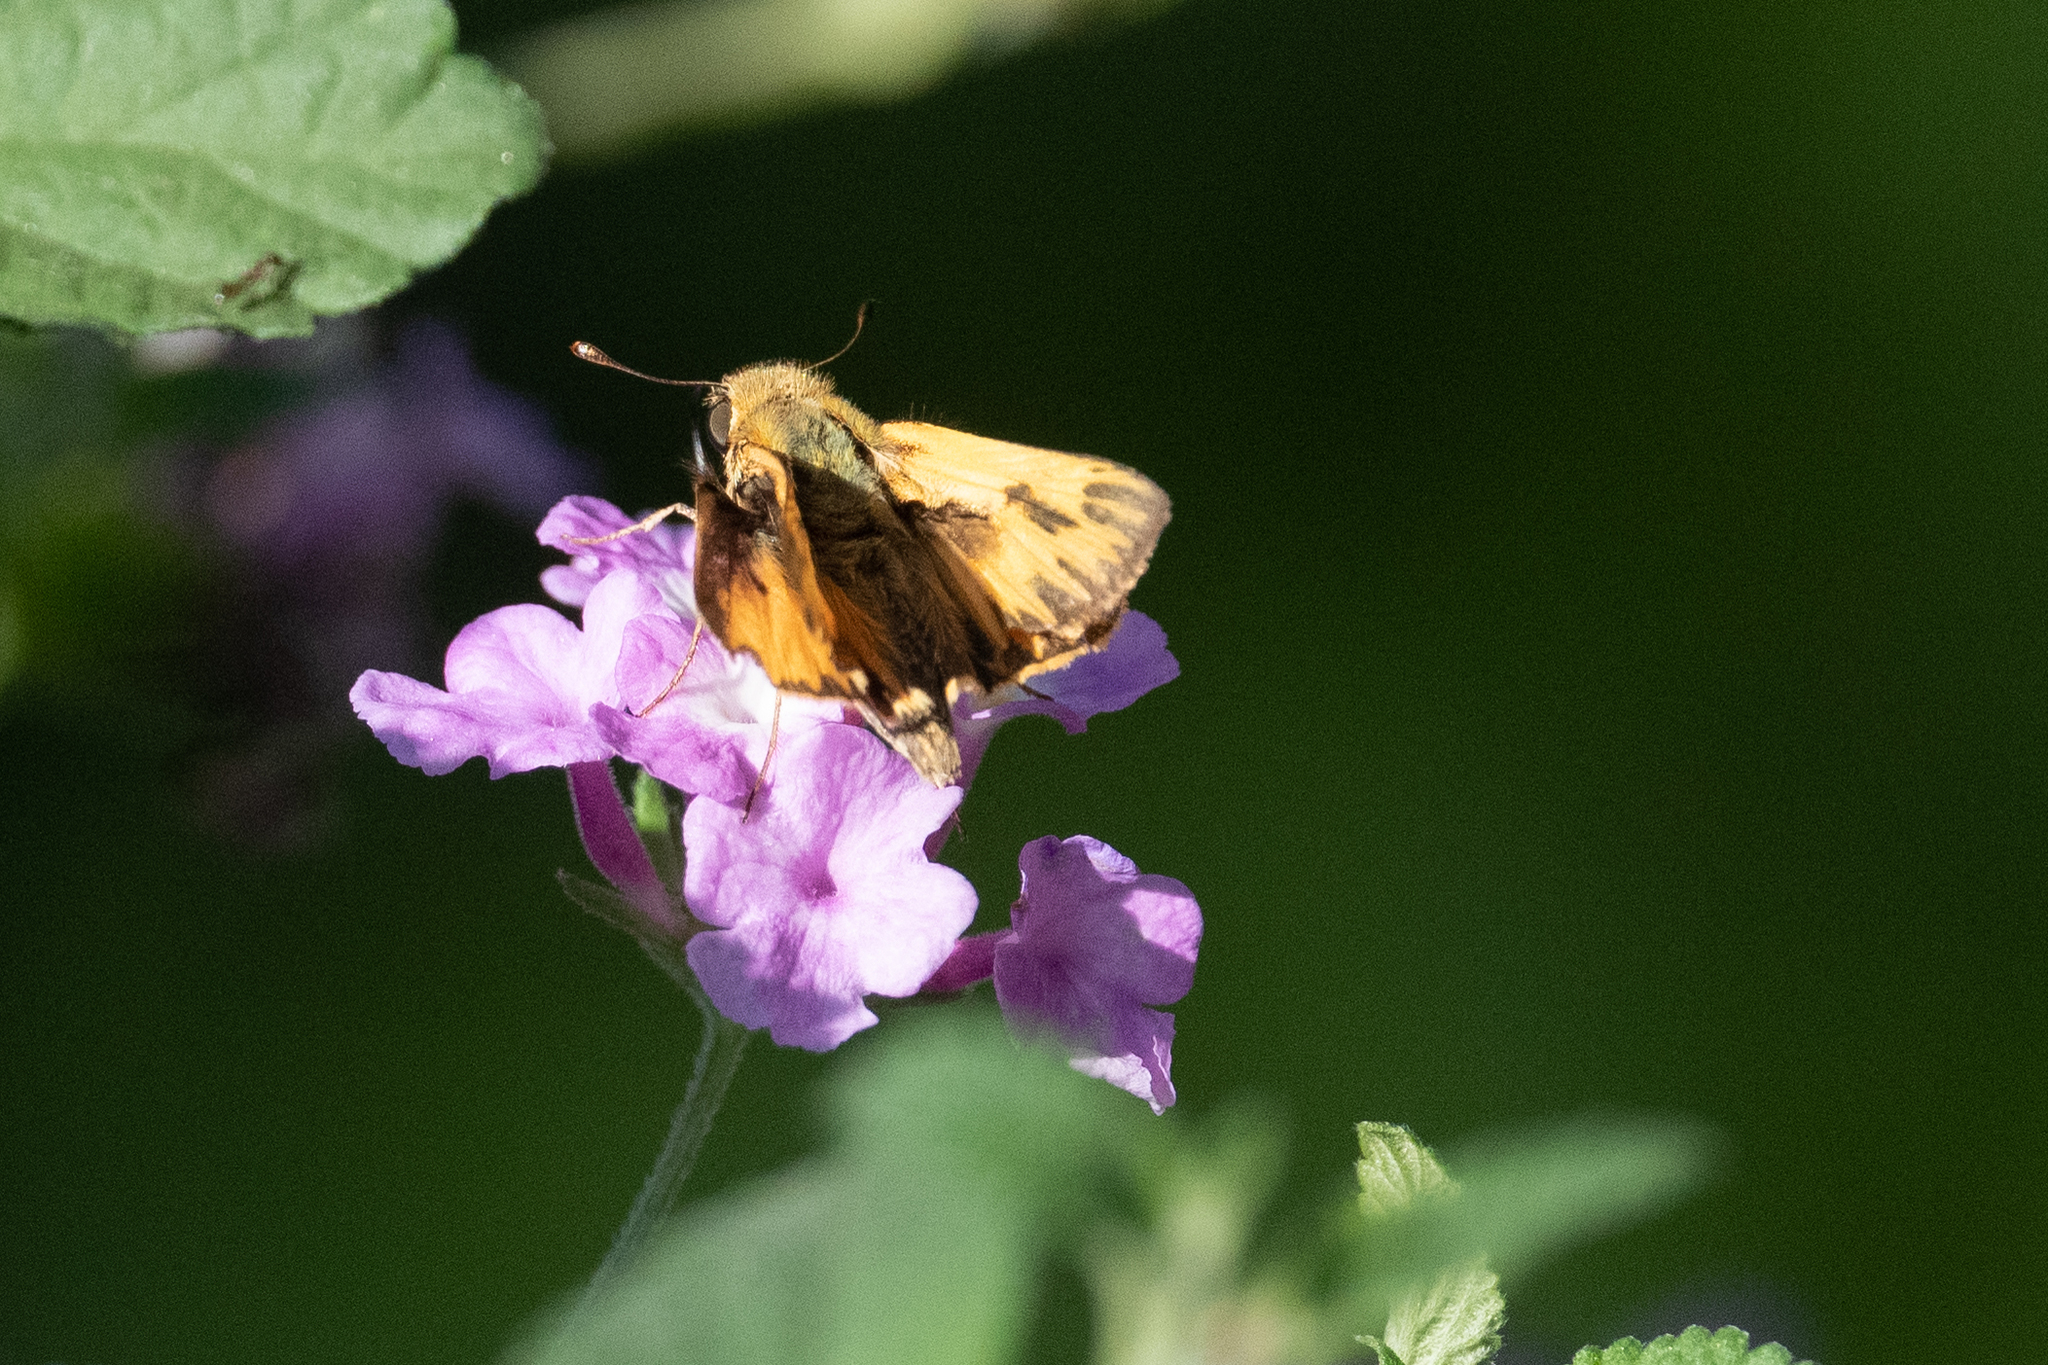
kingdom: Animalia
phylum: Arthropoda
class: Insecta
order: Lepidoptera
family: Hesperiidae
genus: Hylephila
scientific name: Hylephila phyleus
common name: Fiery skipper
